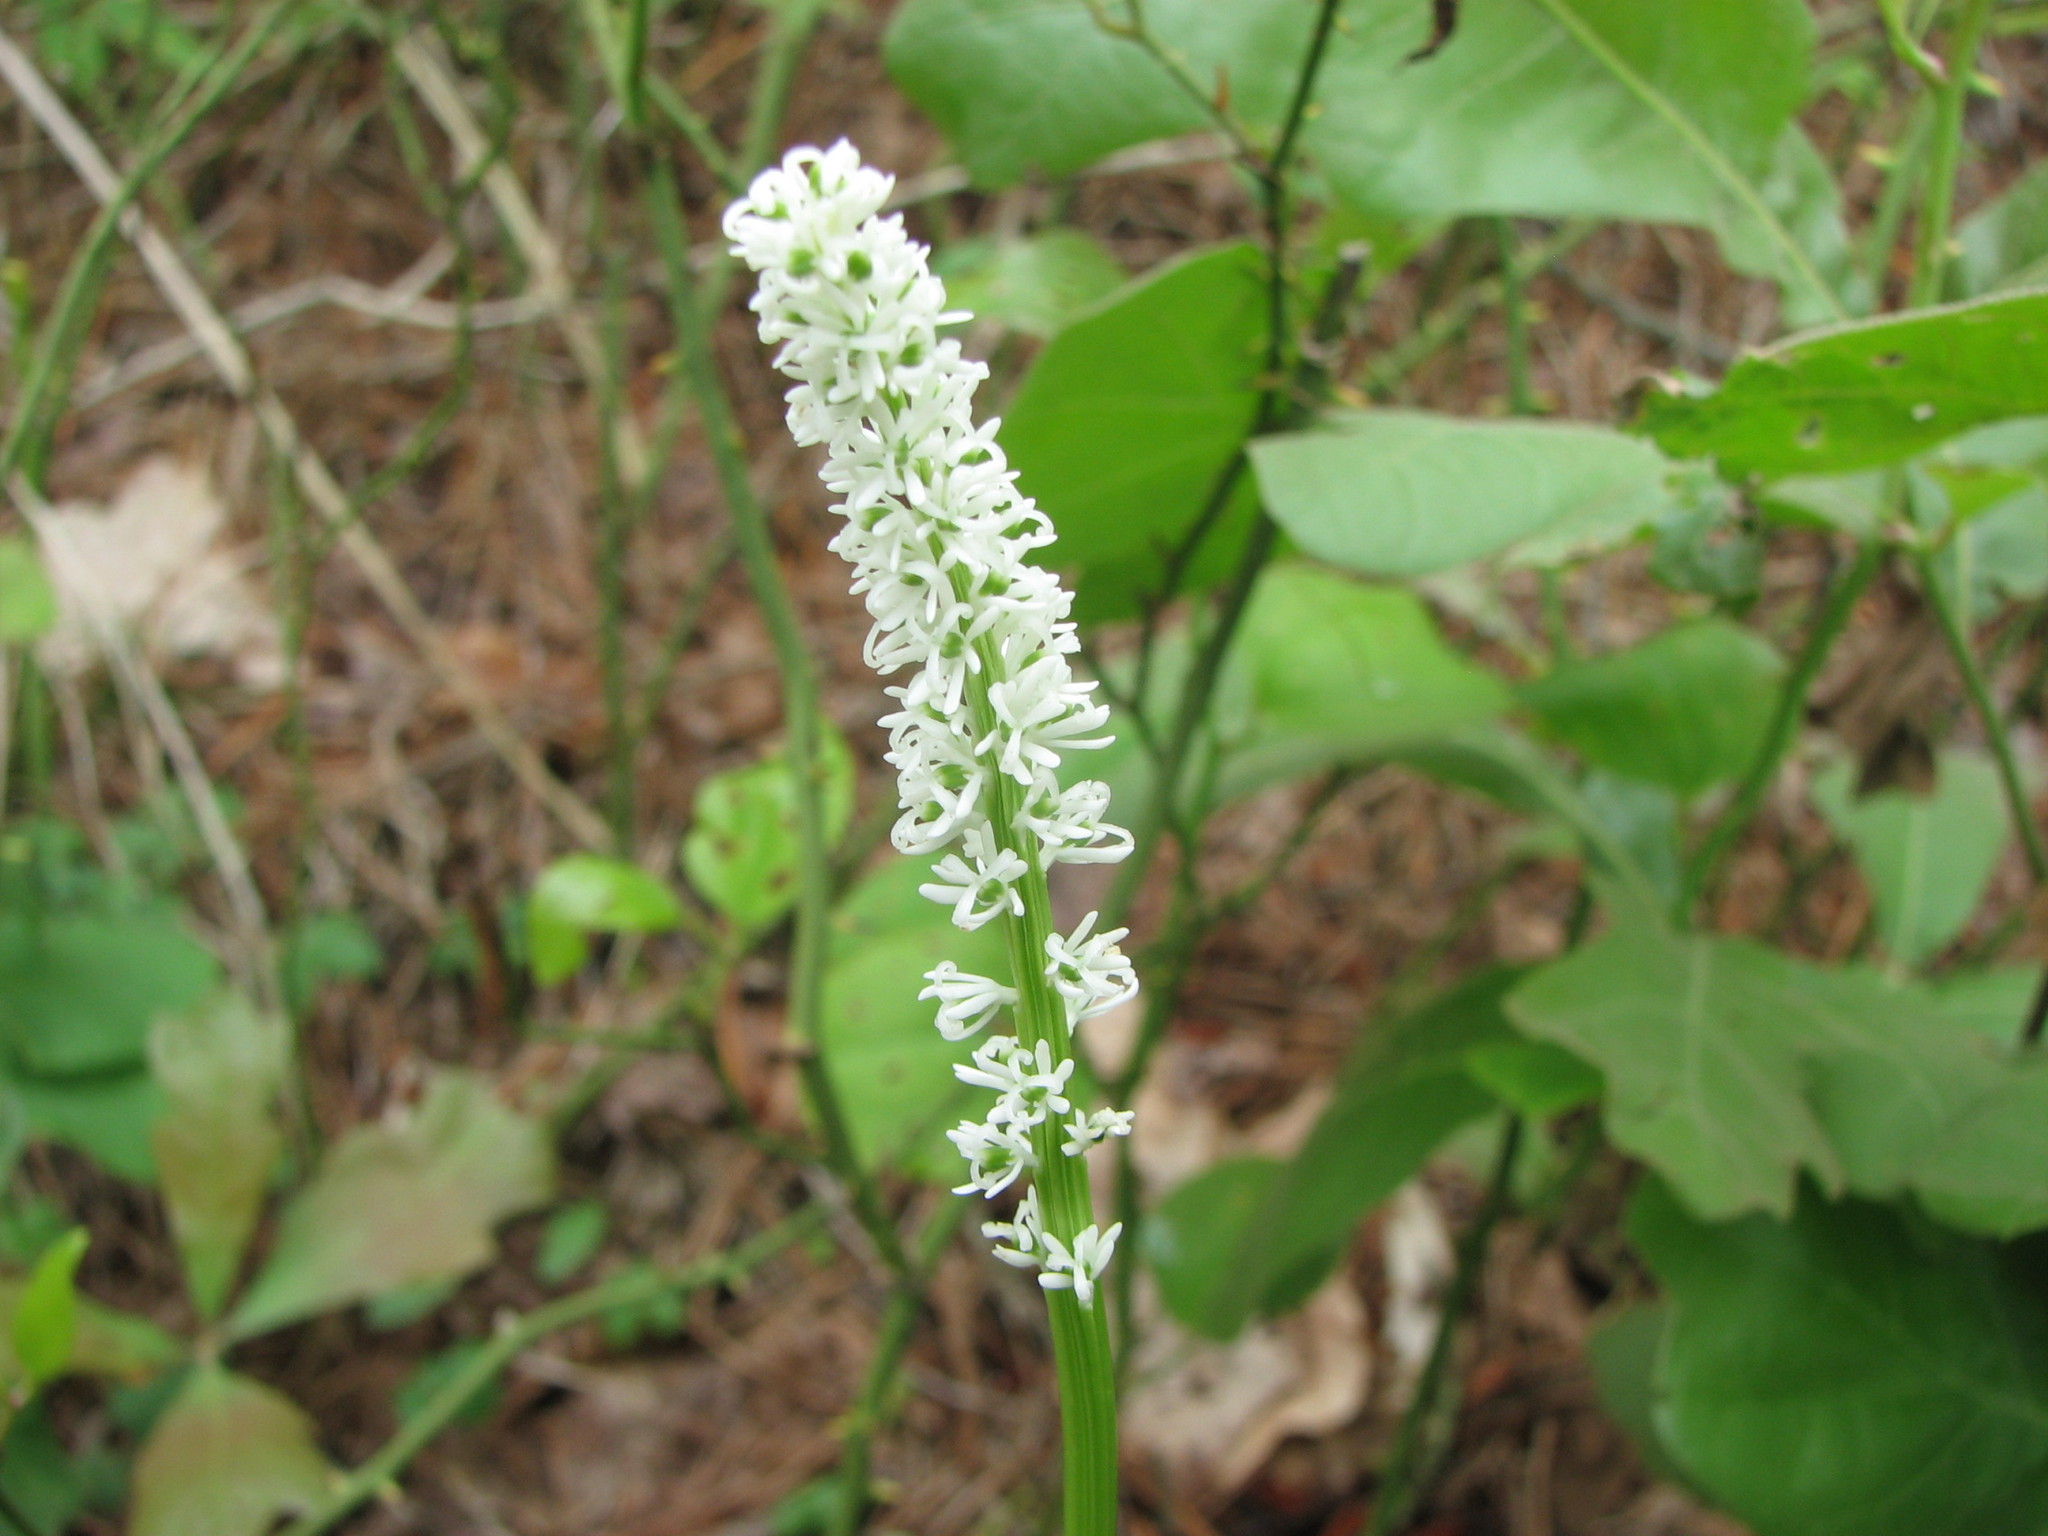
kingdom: Plantae
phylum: Tracheophyta
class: Liliopsida
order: Liliales
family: Melanthiaceae
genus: Chamaelirium
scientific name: Chamaelirium luteum
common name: Fairy-wand
